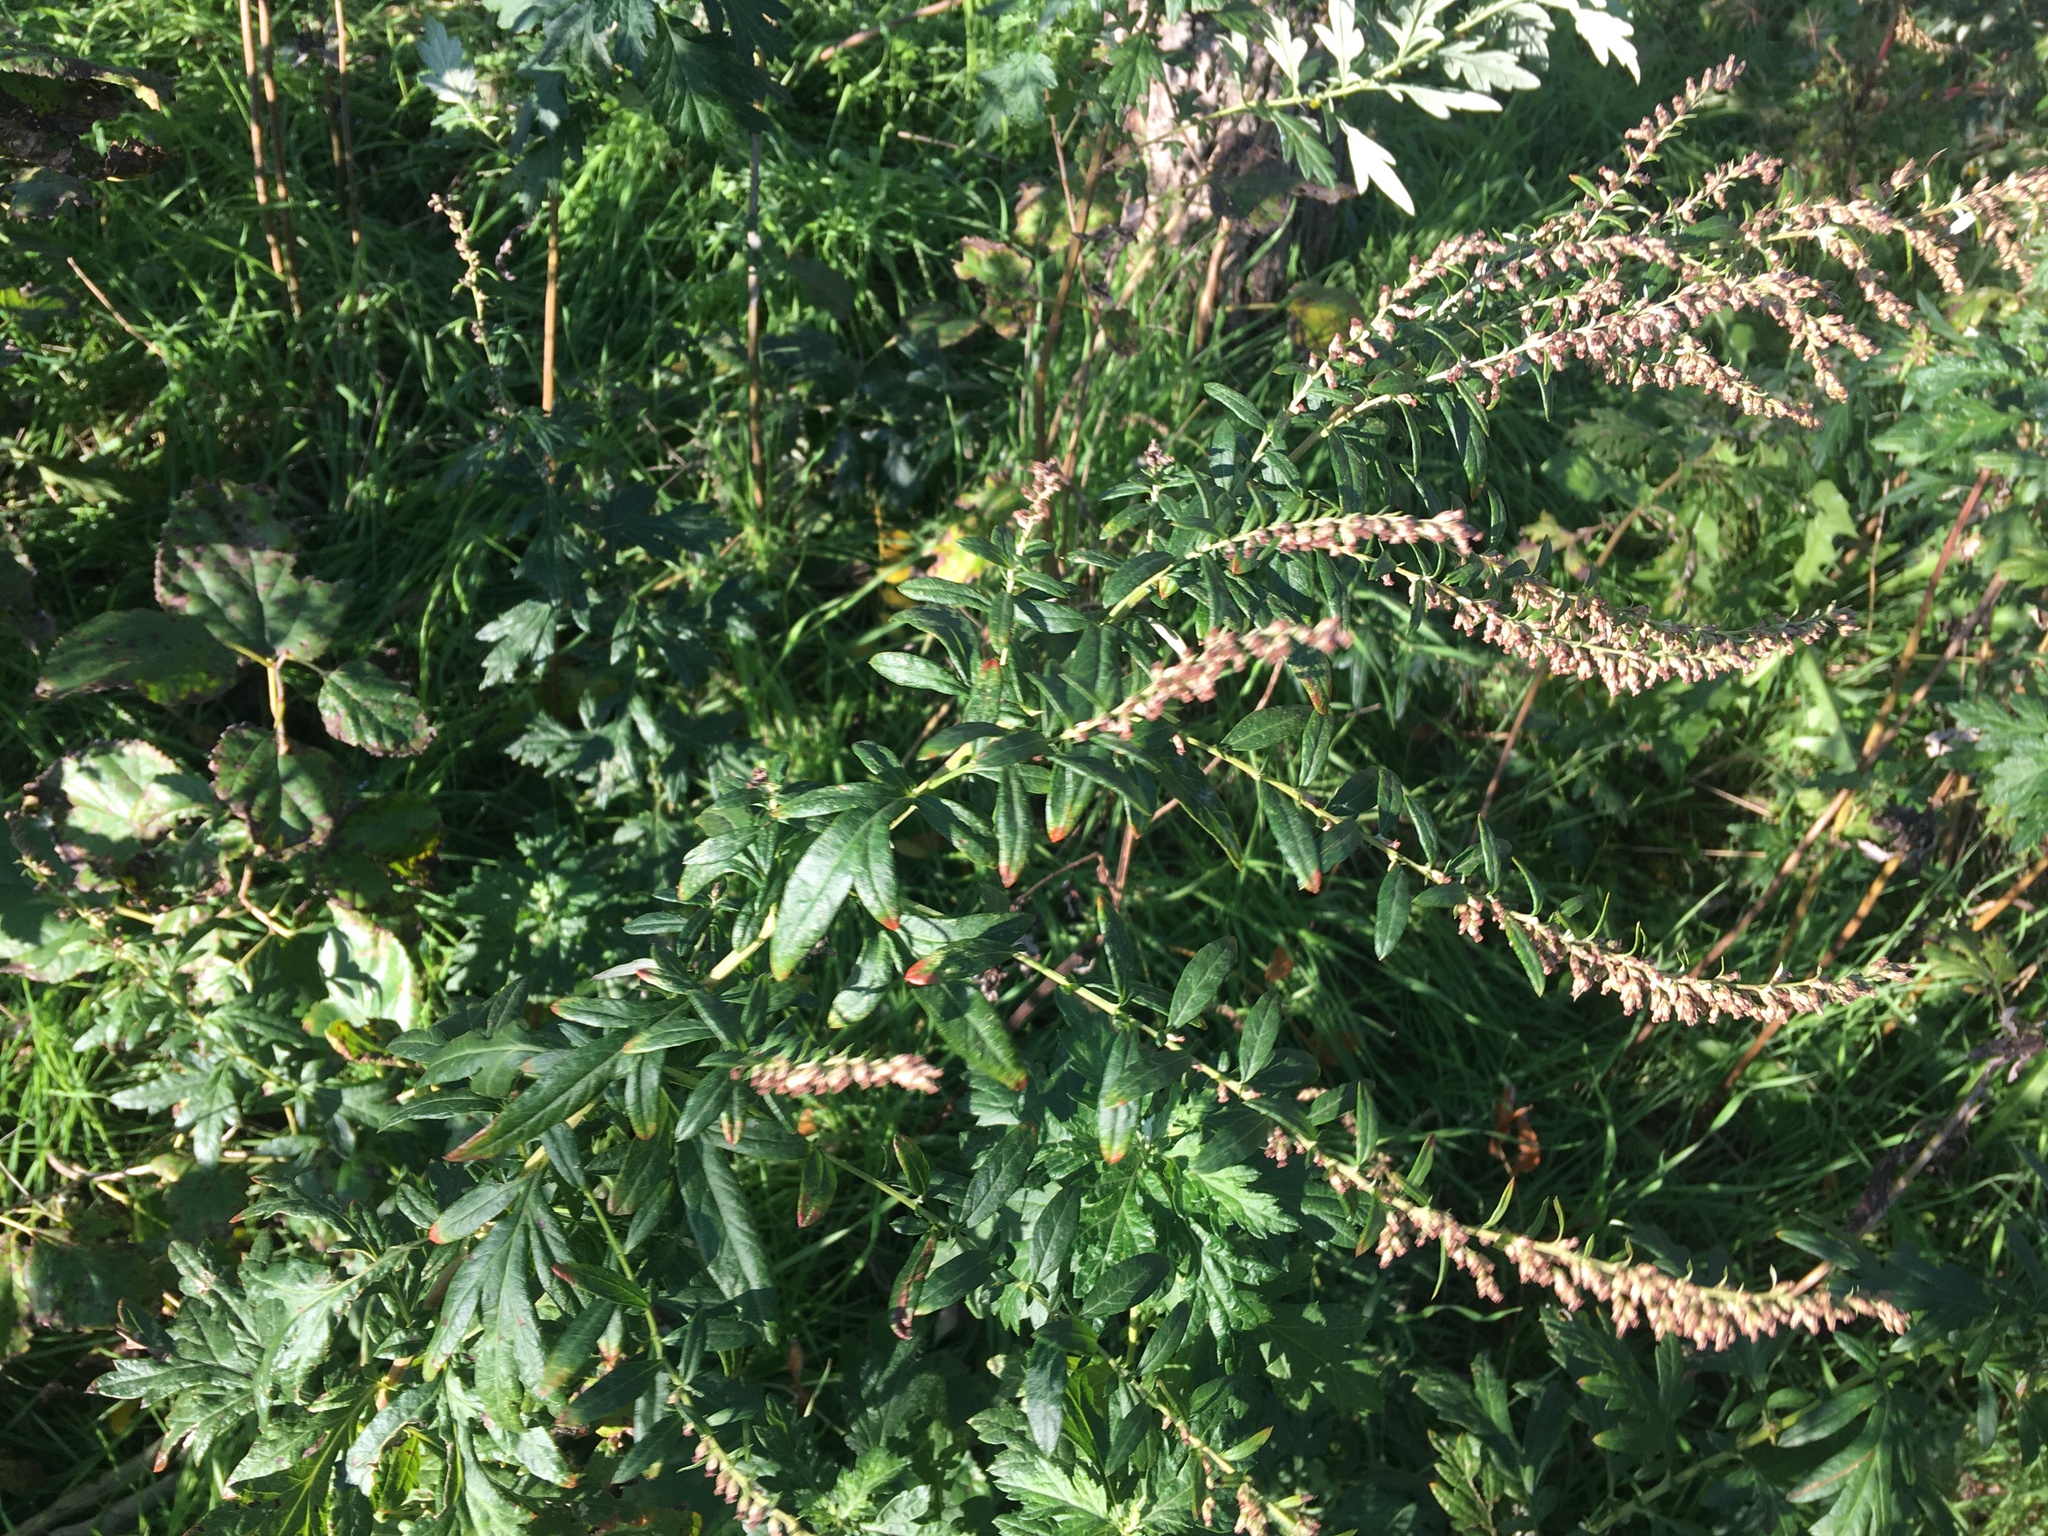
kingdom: Plantae
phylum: Tracheophyta
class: Magnoliopsida
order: Asterales
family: Asteraceae
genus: Artemisia
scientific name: Artemisia vulgaris
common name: Mugwort
